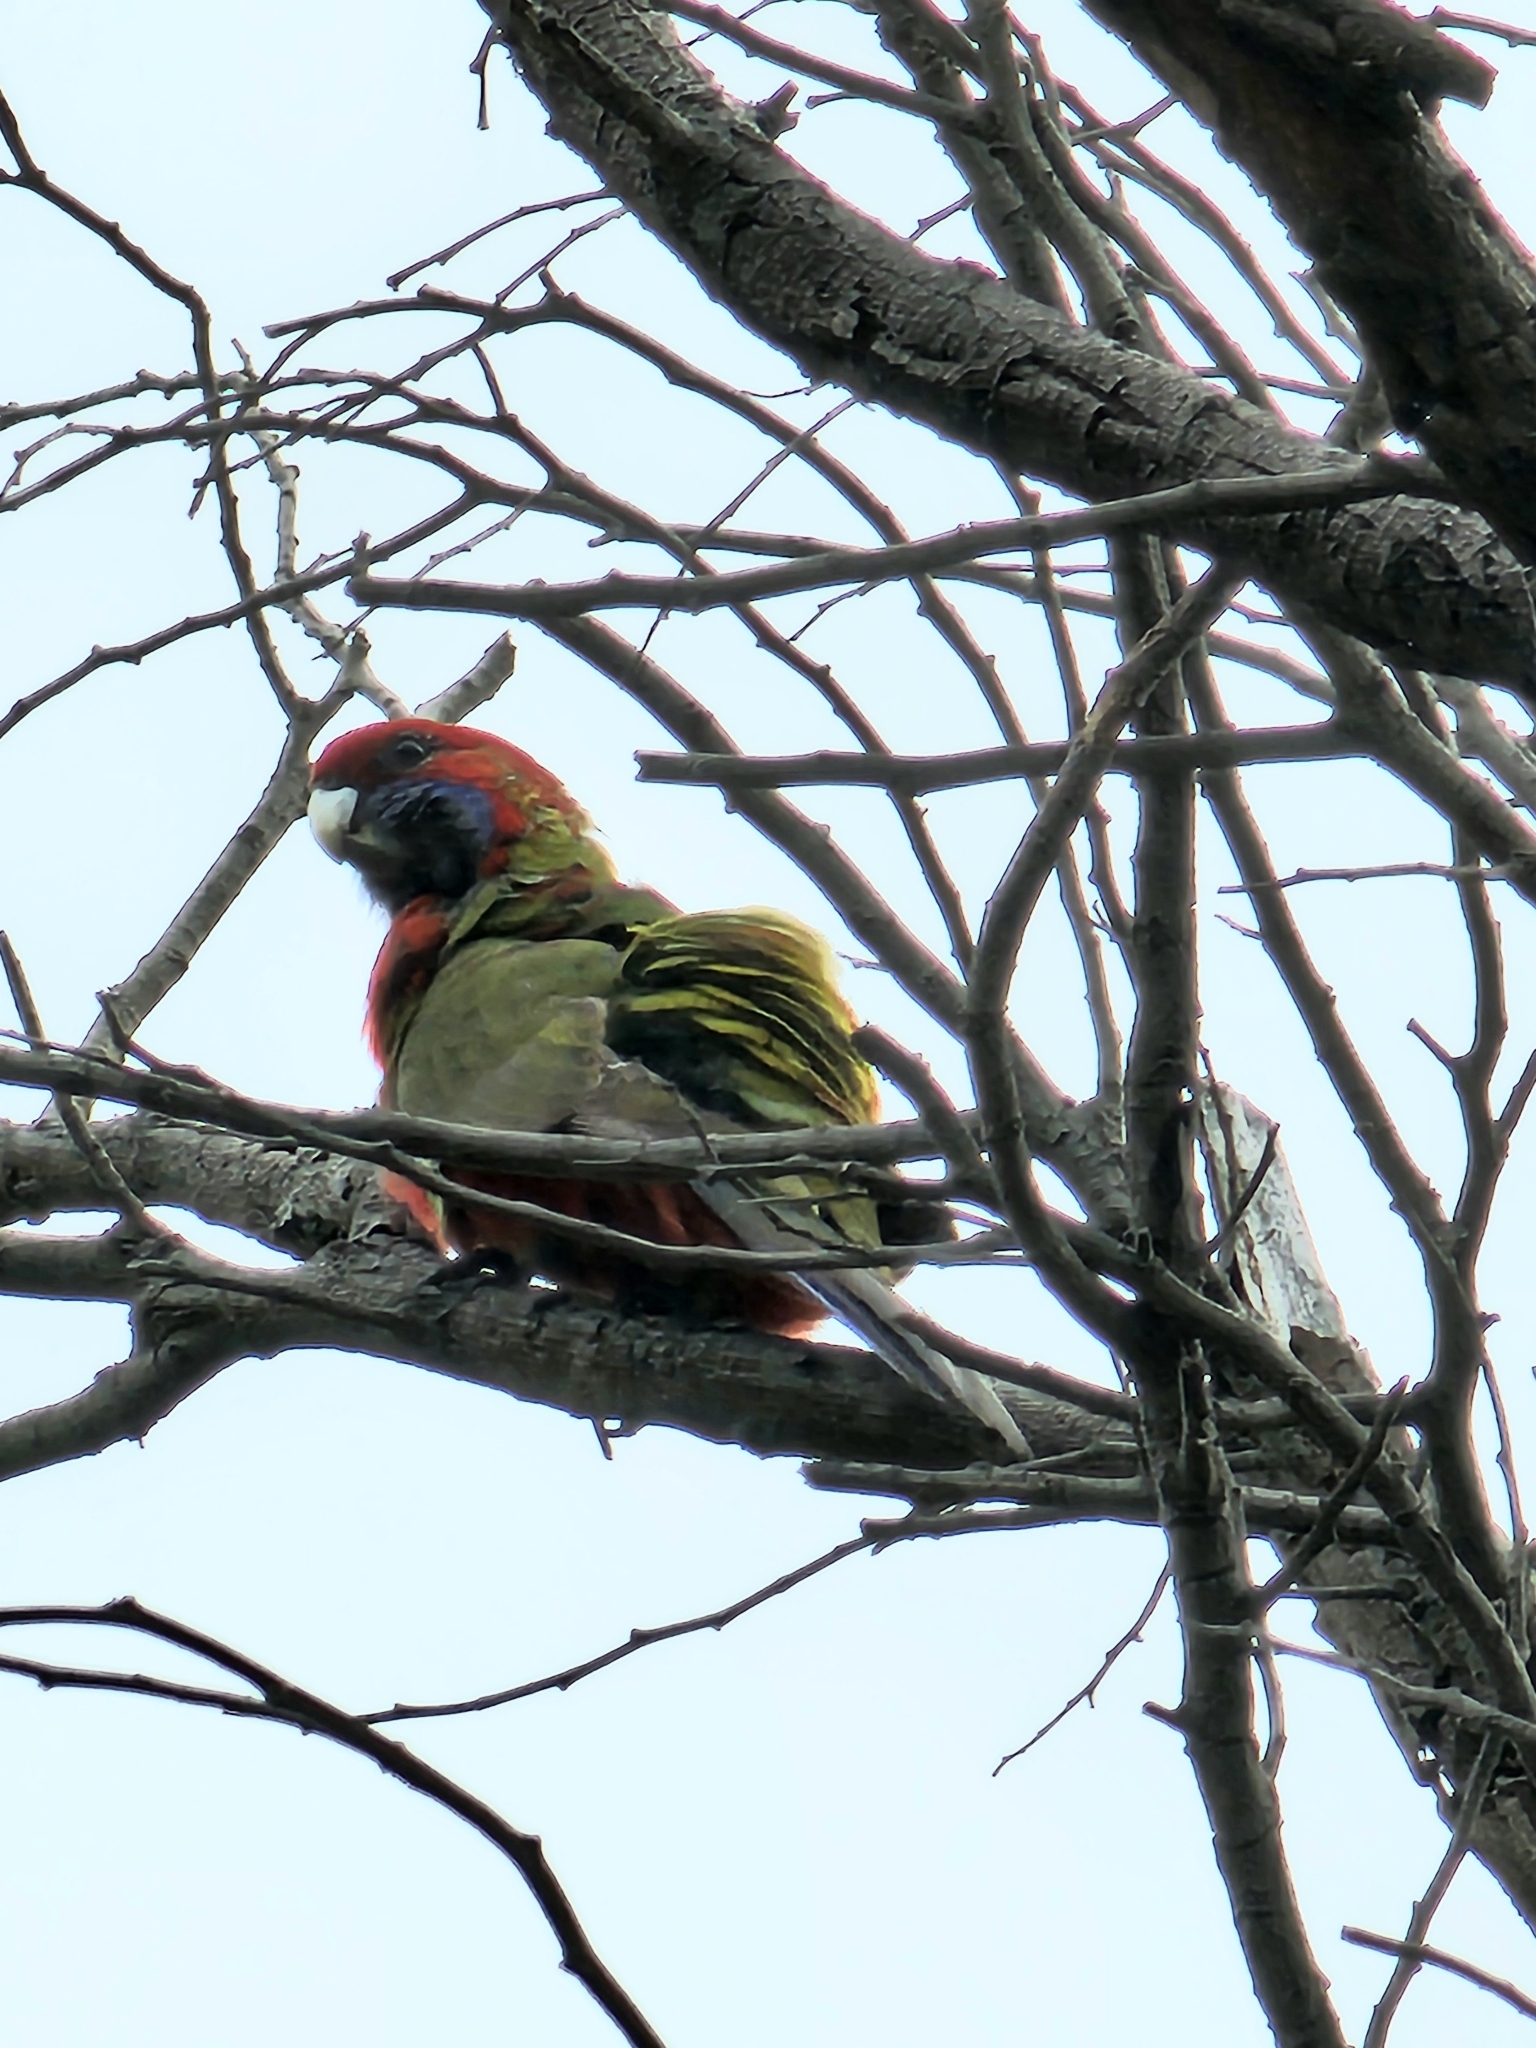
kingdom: Animalia
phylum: Chordata
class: Aves
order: Psittaciformes
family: Psittacidae
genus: Platycercus
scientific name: Platycercus elegans
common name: Crimson rosella
